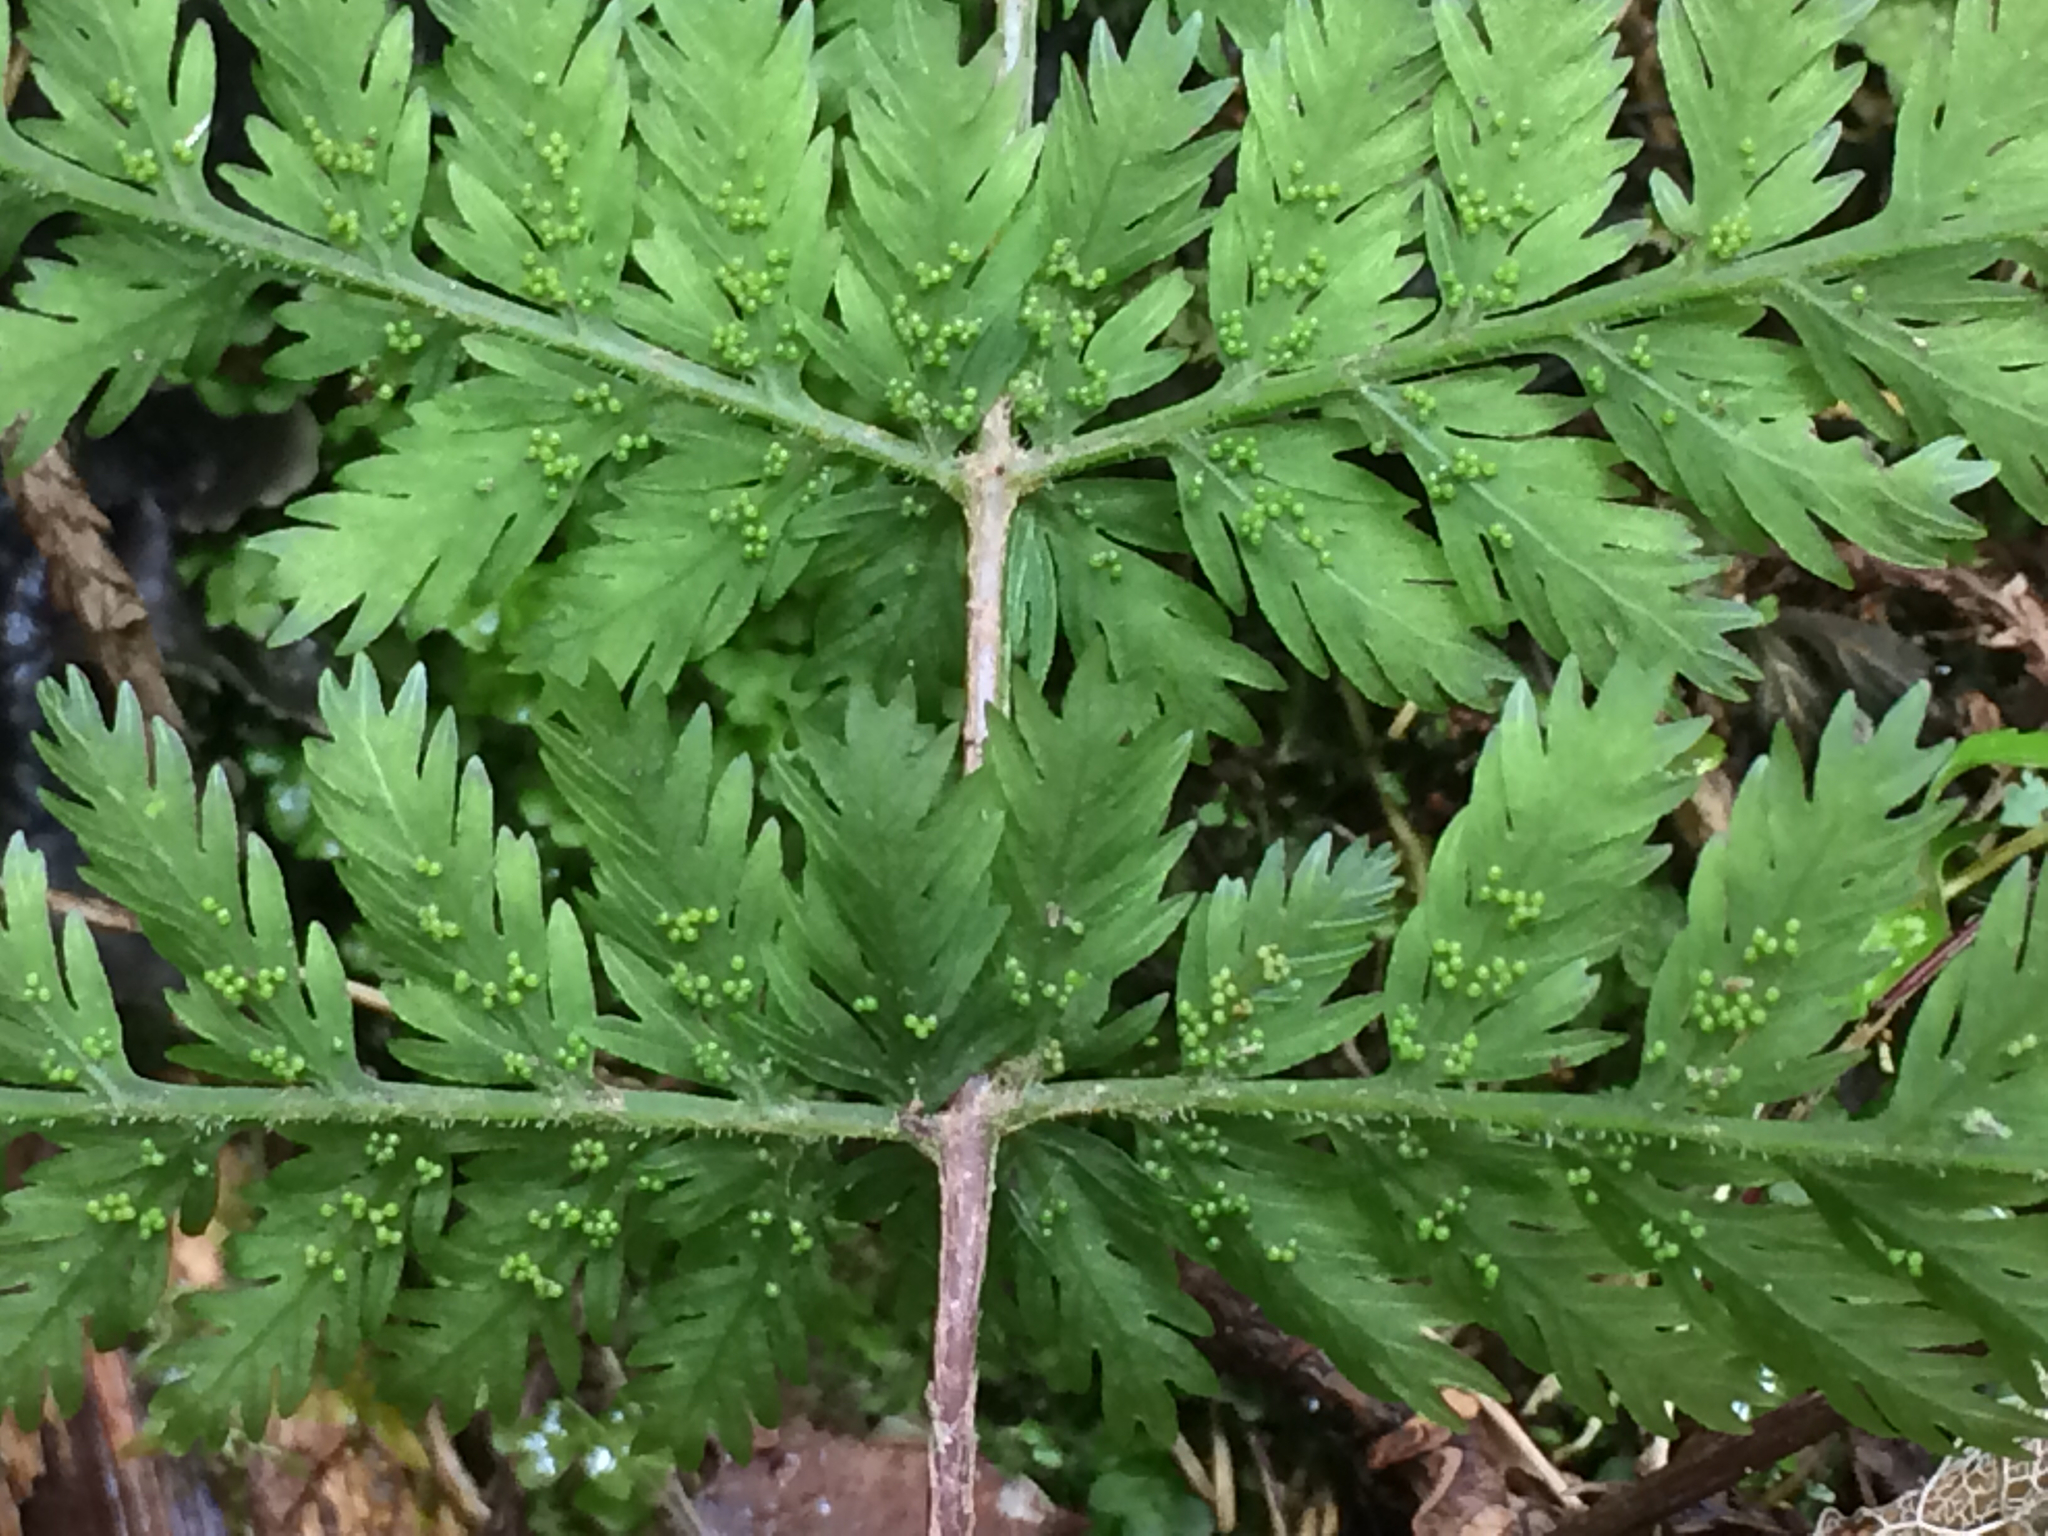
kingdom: Plantae
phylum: Tracheophyta
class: Polypodiopsida
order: Osmundales
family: Osmundaceae
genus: Leptopteris
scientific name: Leptopteris hymenophylloides
